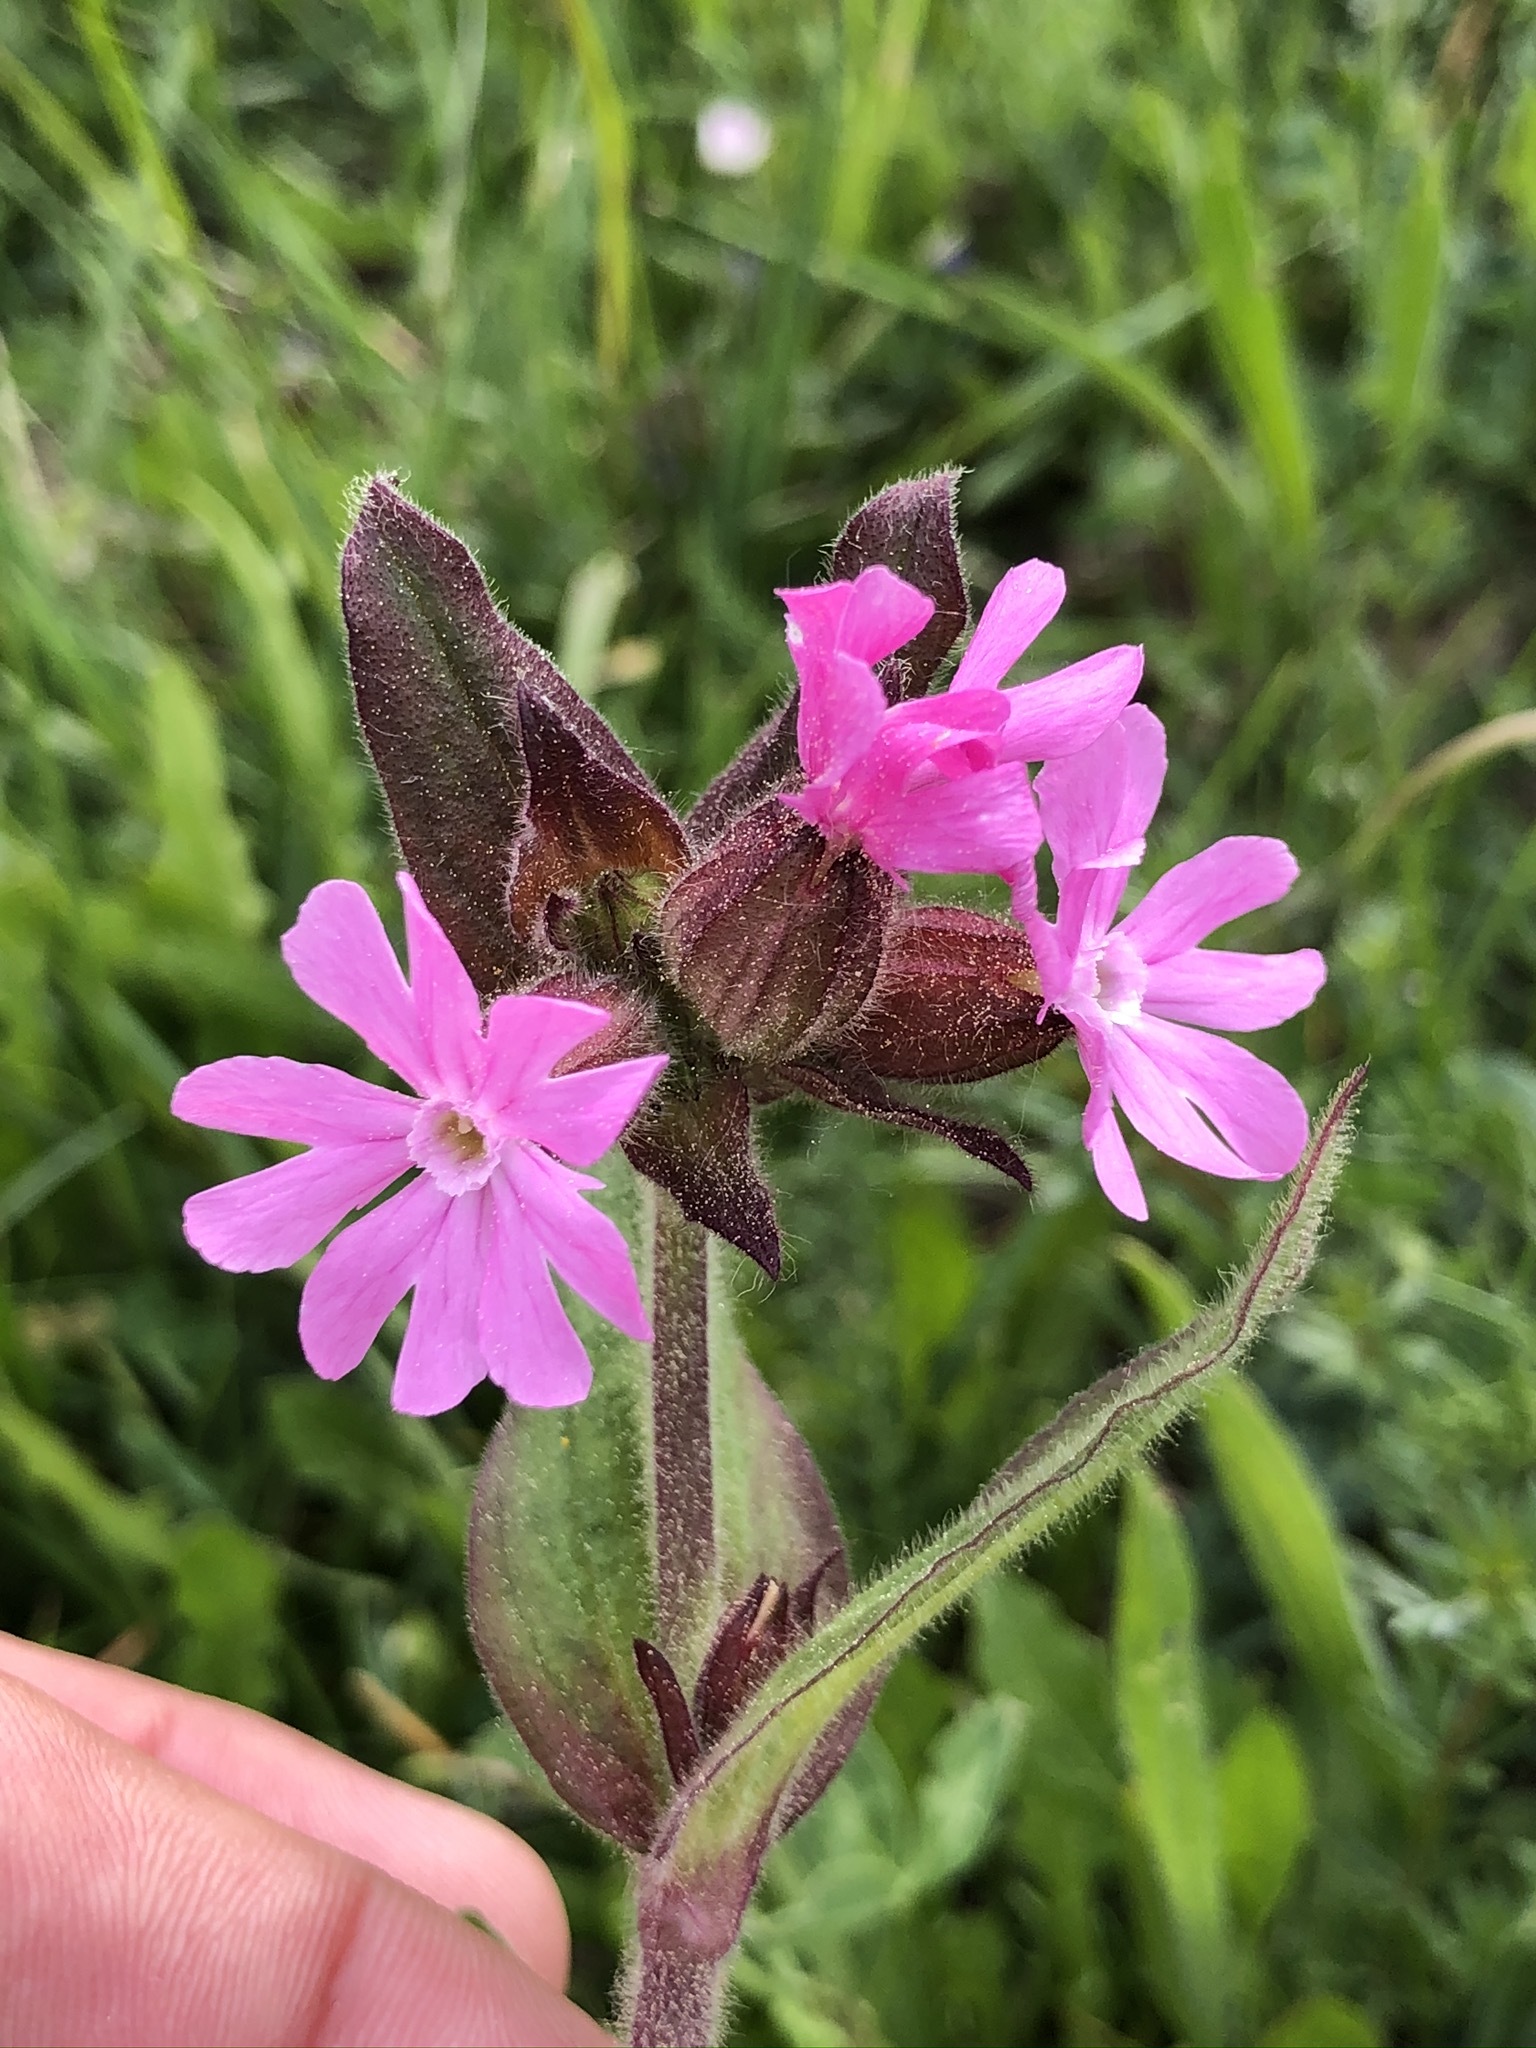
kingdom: Plantae
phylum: Tracheophyta
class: Magnoliopsida
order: Caryophyllales
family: Caryophyllaceae
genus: Silene
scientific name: Silene dioica
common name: Red campion
